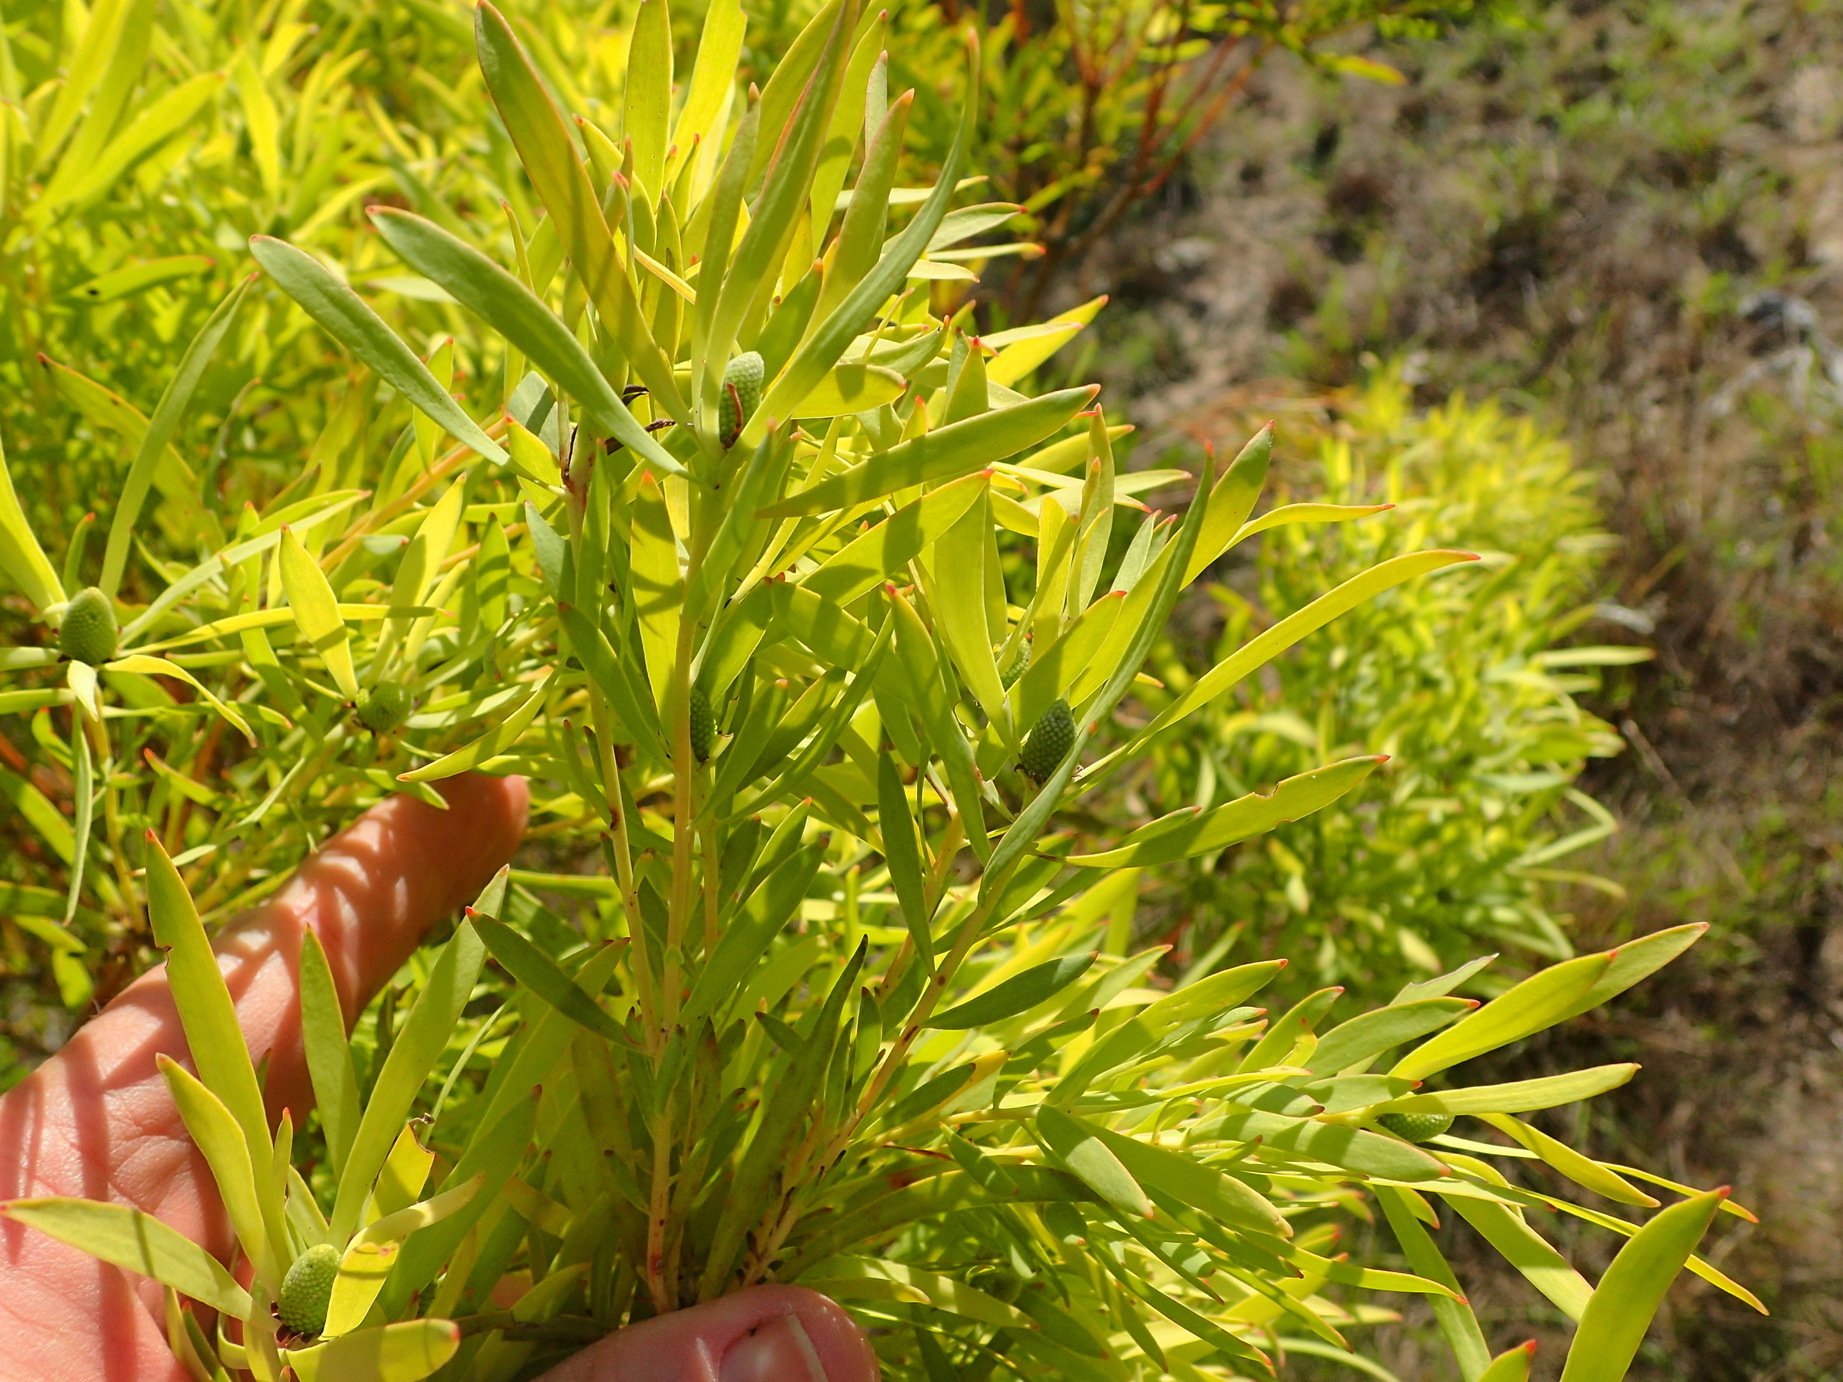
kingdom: Plantae
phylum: Tracheophyta
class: Magnoliopsida
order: Proteales
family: Proteaceae
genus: Leucadendron
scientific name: Leucadendron salignum
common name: Common sunshine conebush
